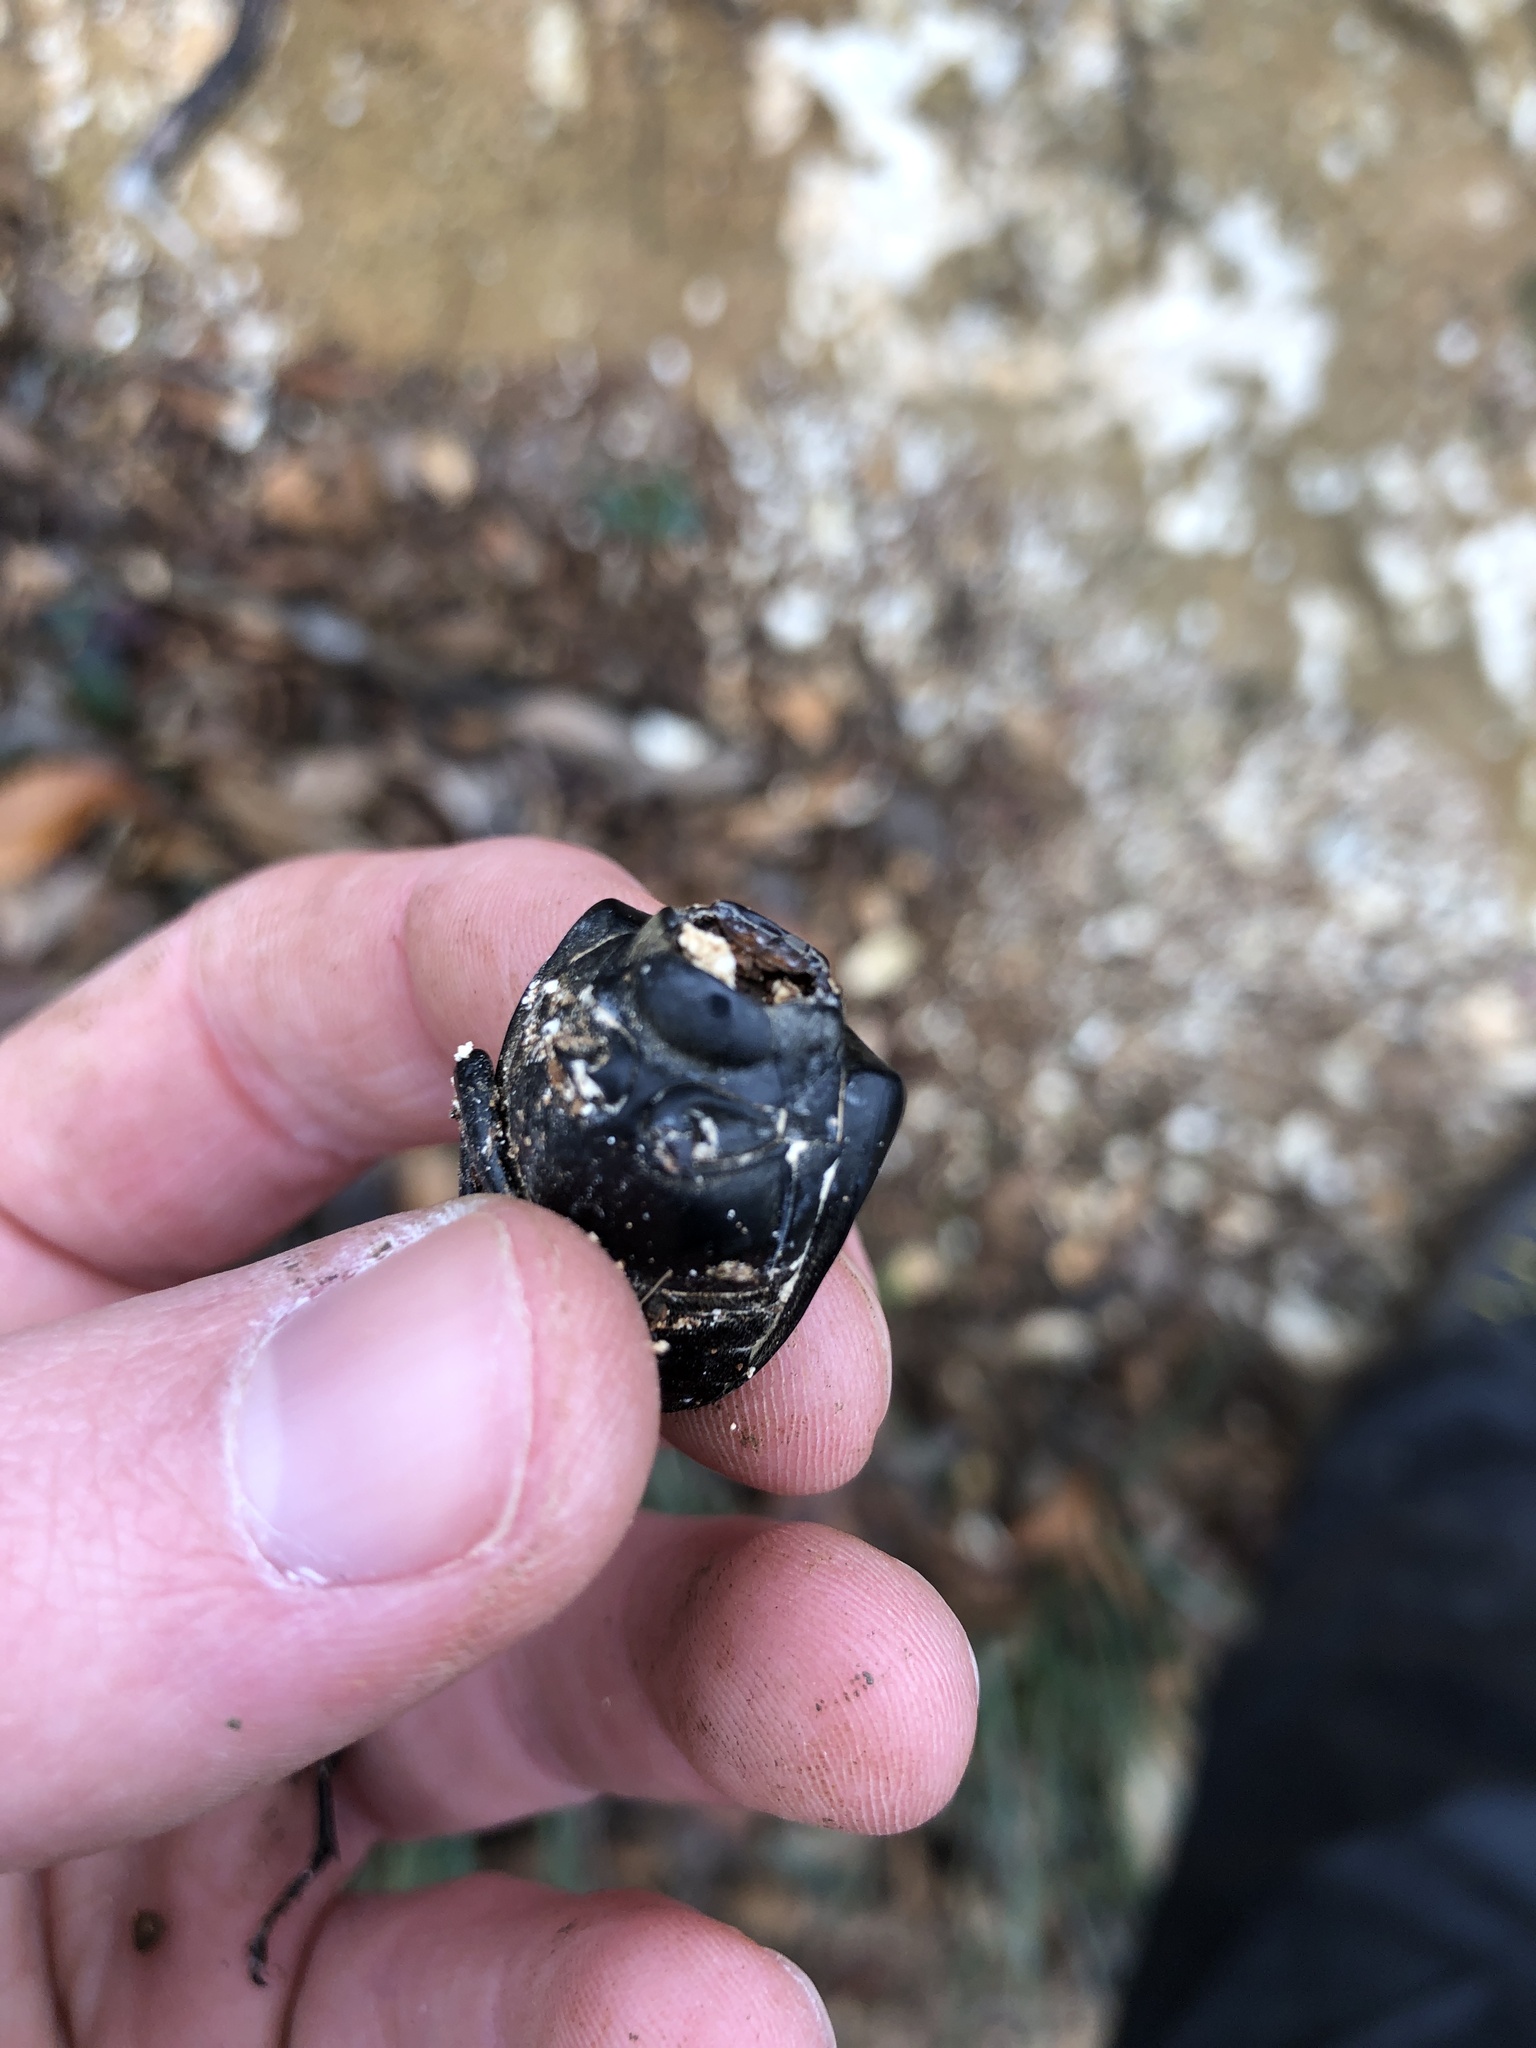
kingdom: Animalia
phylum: Arthropoda
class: Insecta
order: Coleoptera
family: Lucanidae
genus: Lucanus
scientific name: Lucanus cervus
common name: Stag beetle
